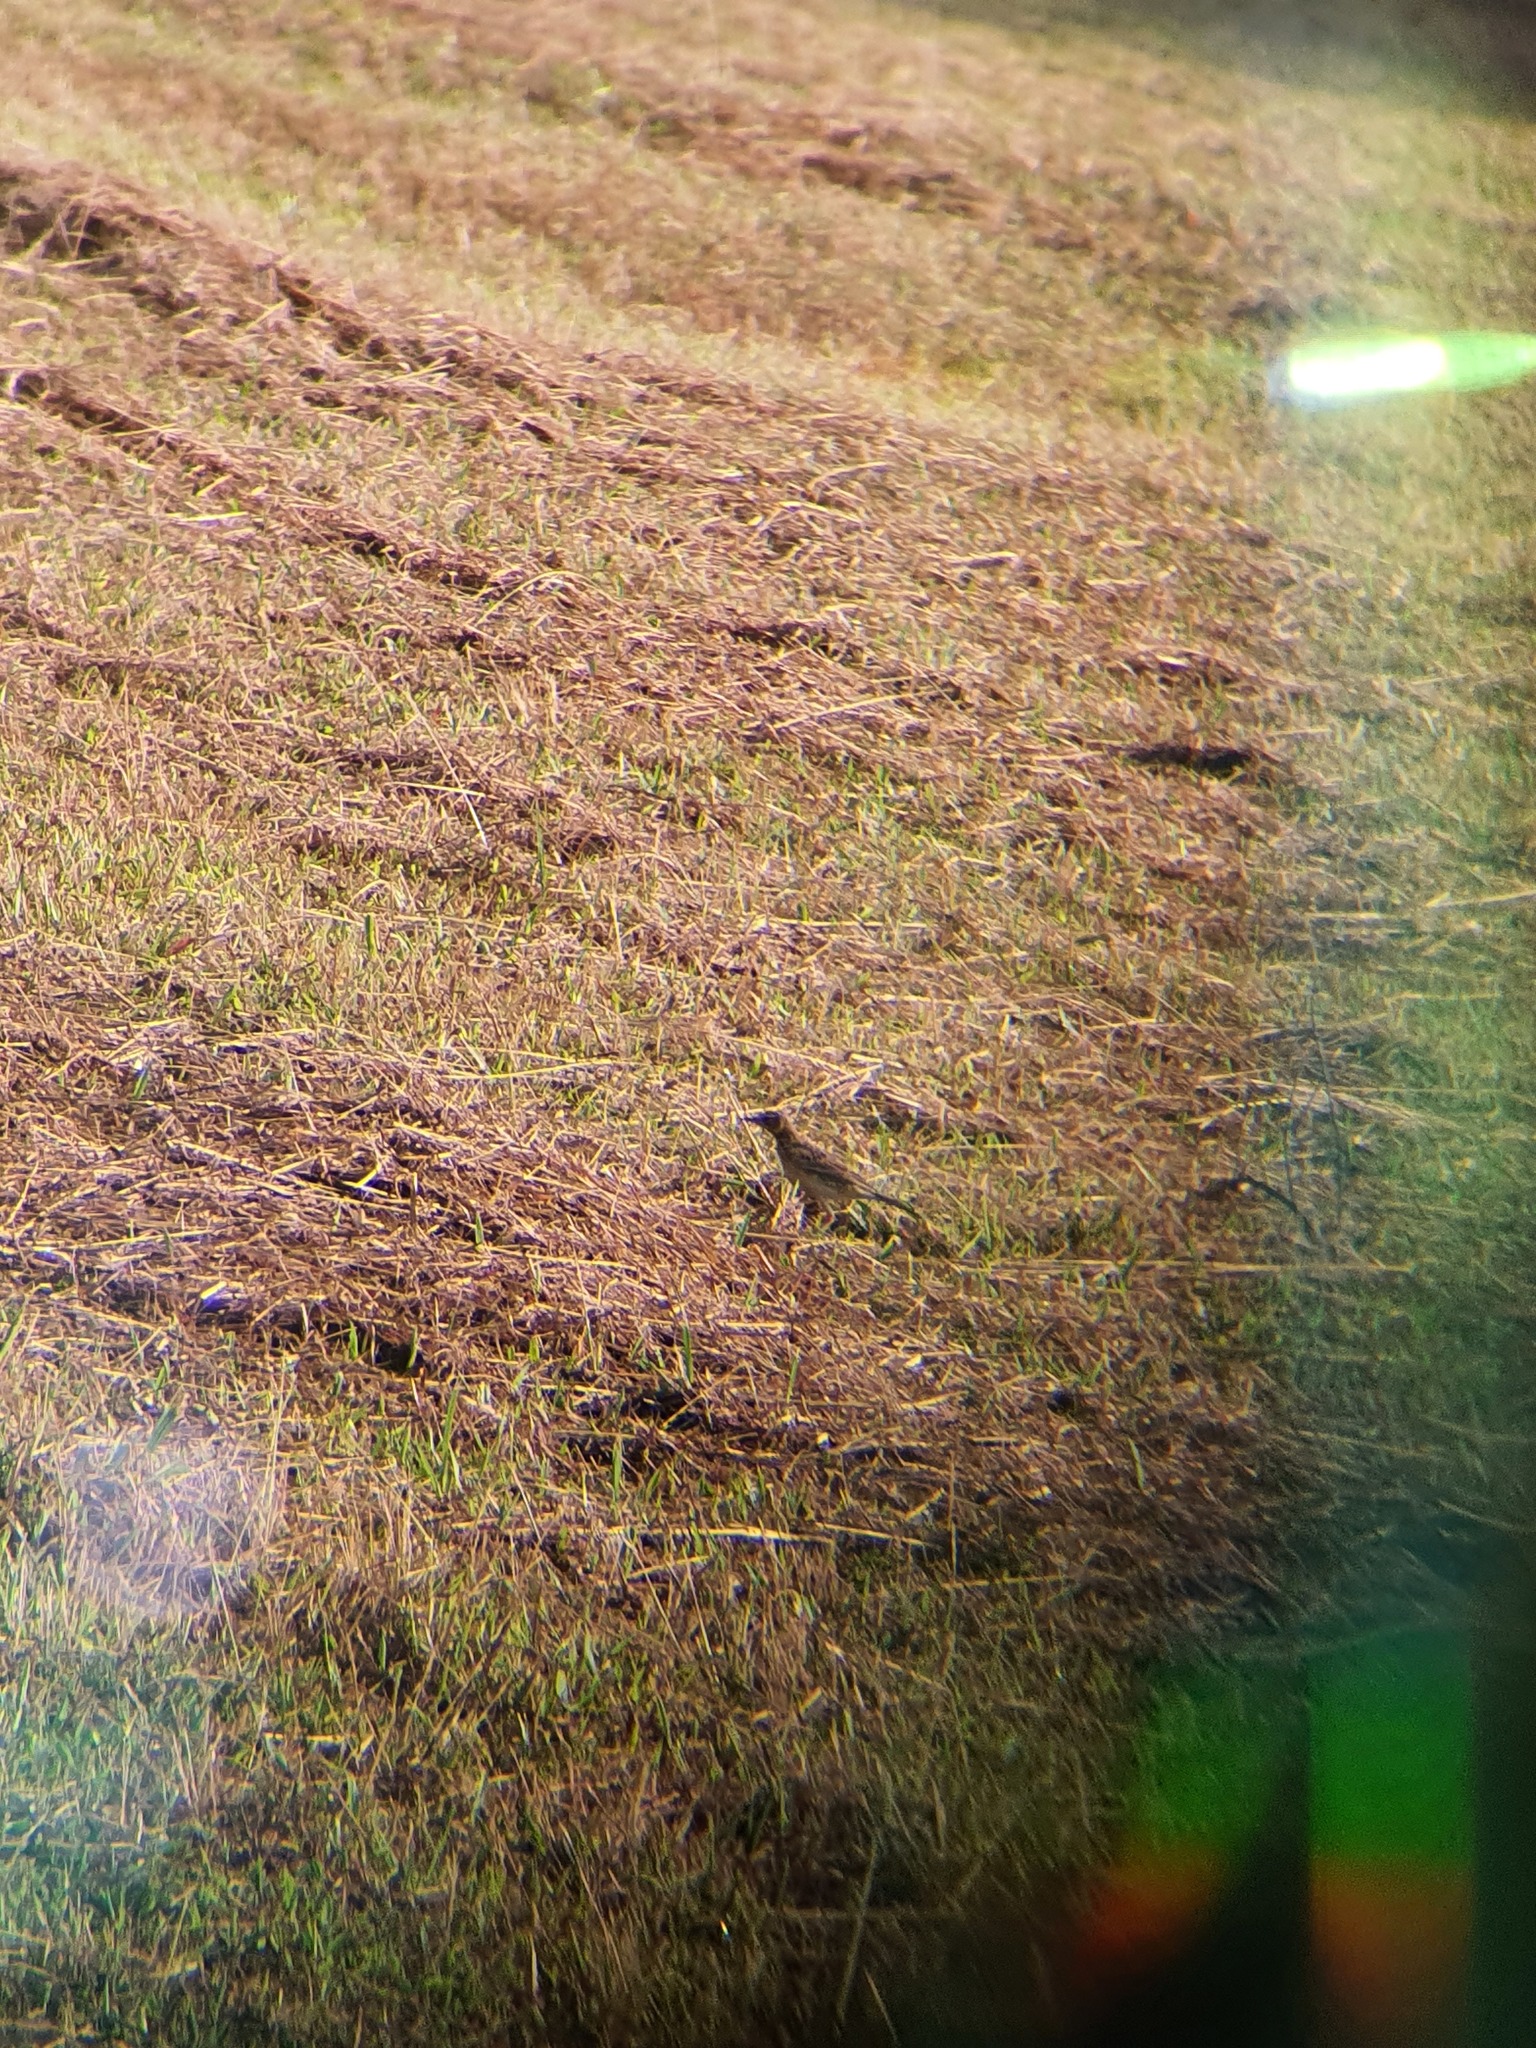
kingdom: Animalia
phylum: Chordata
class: Aves
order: Passeriformes
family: Motacillidae
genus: Anthus
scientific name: Anthus rufulus
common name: Paddyfield pipit
